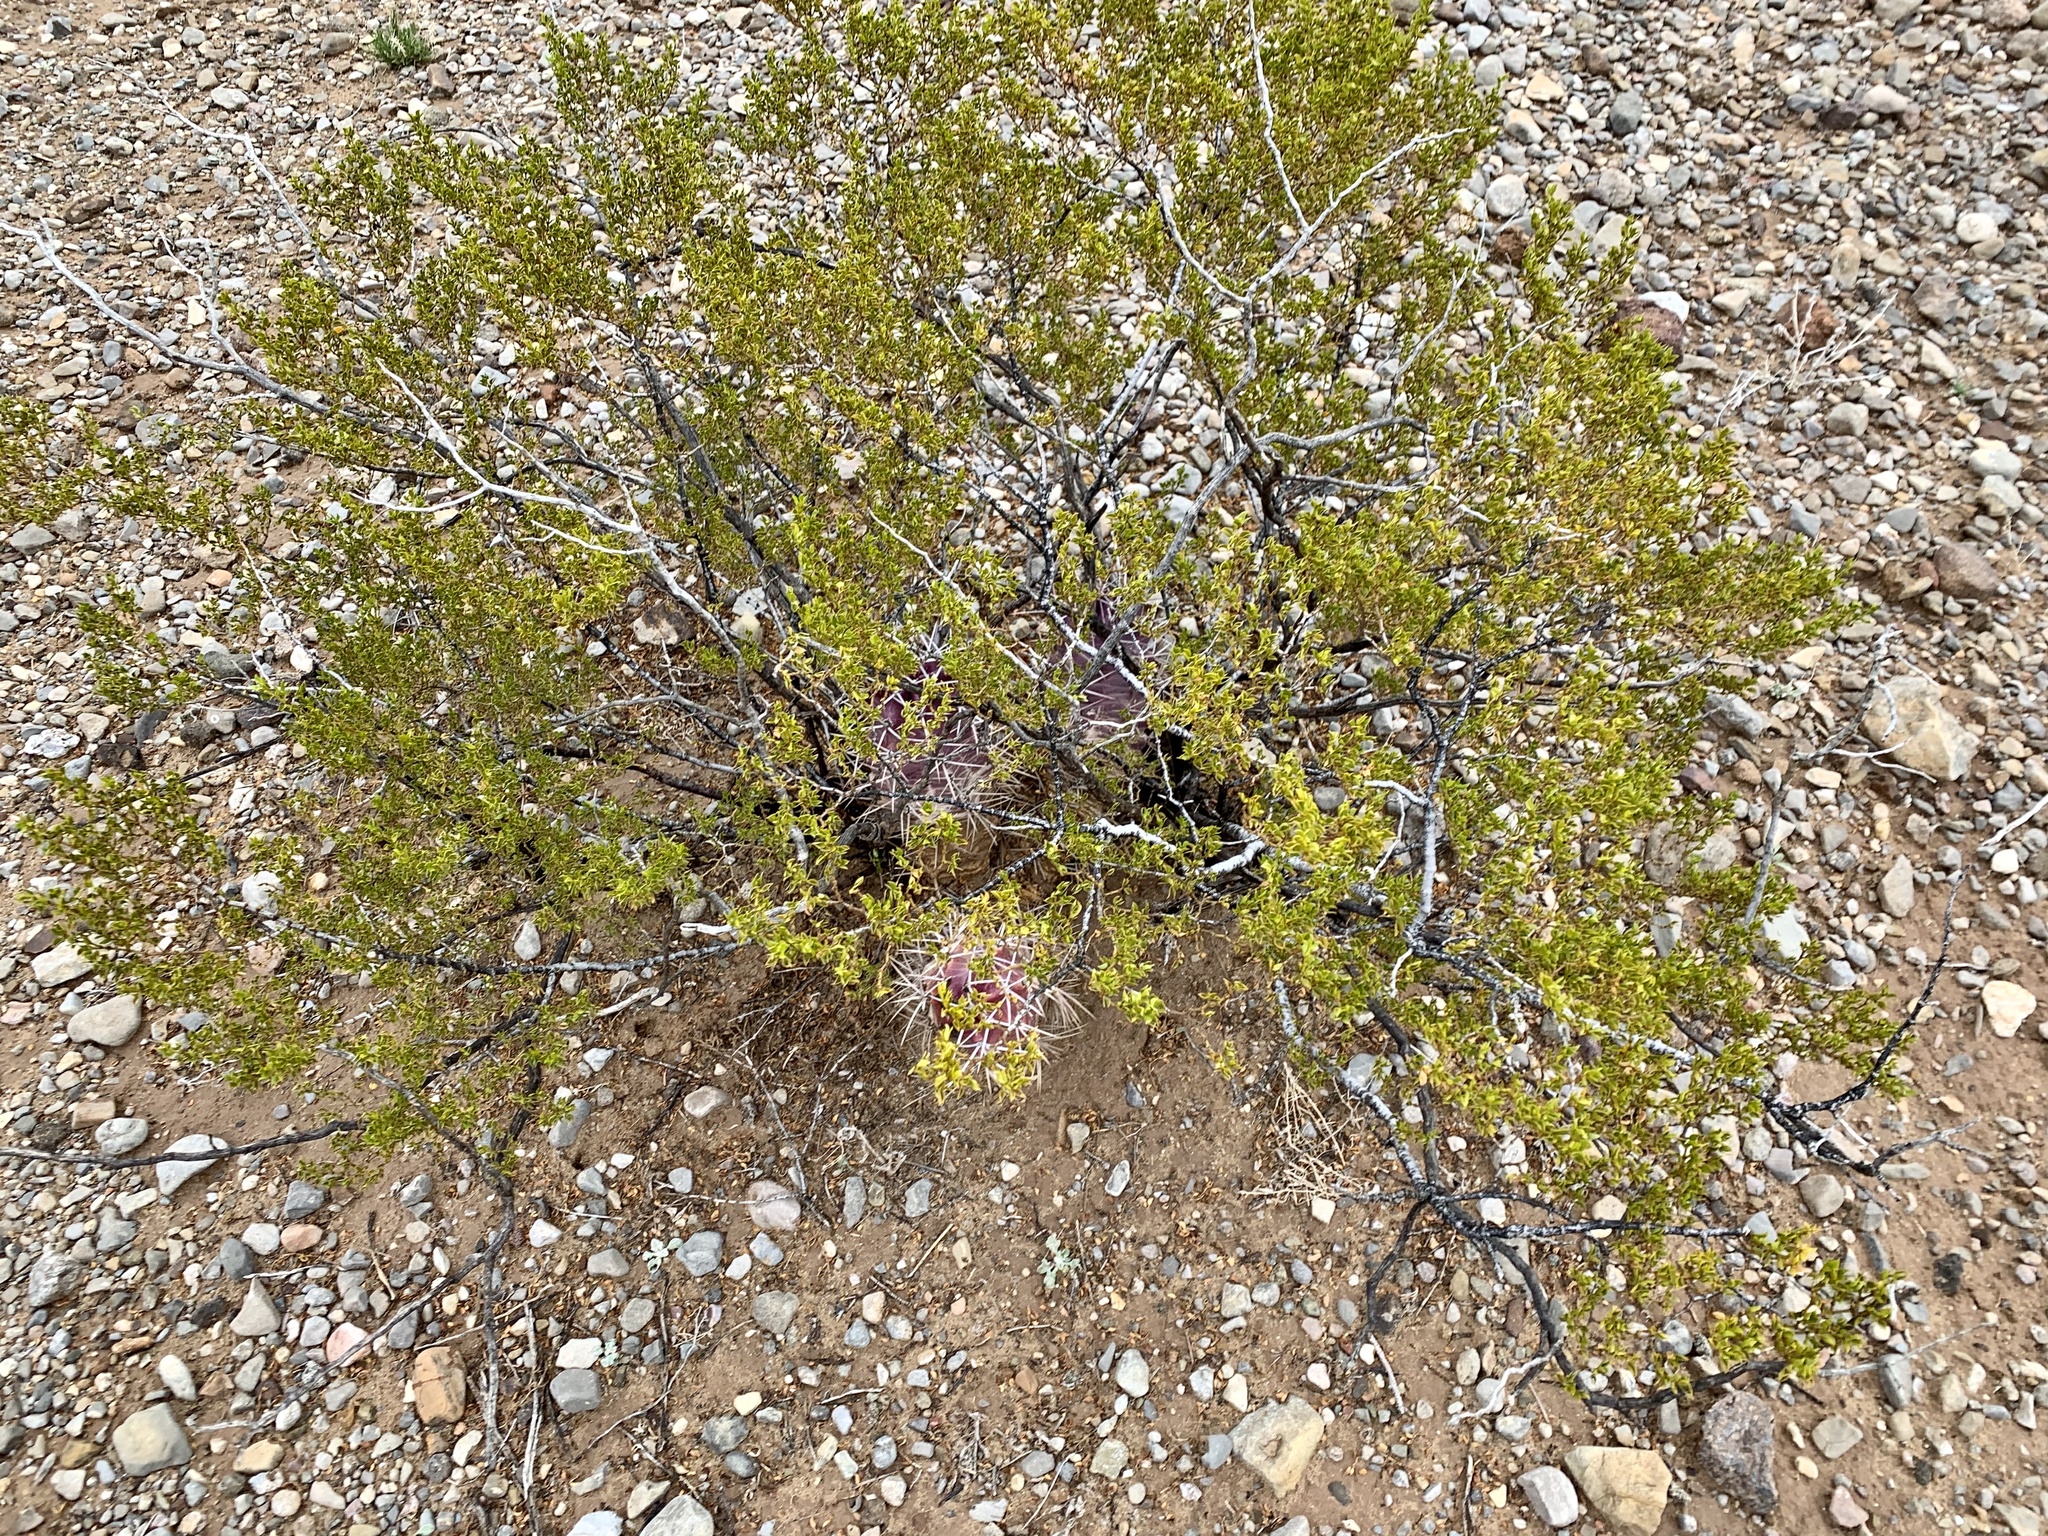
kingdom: Plantae
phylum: Tracheophyta
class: Magnoliopsida
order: Zygophyllales
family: Zygophyllaceae
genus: Larrea
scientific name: Larrea tridentata
